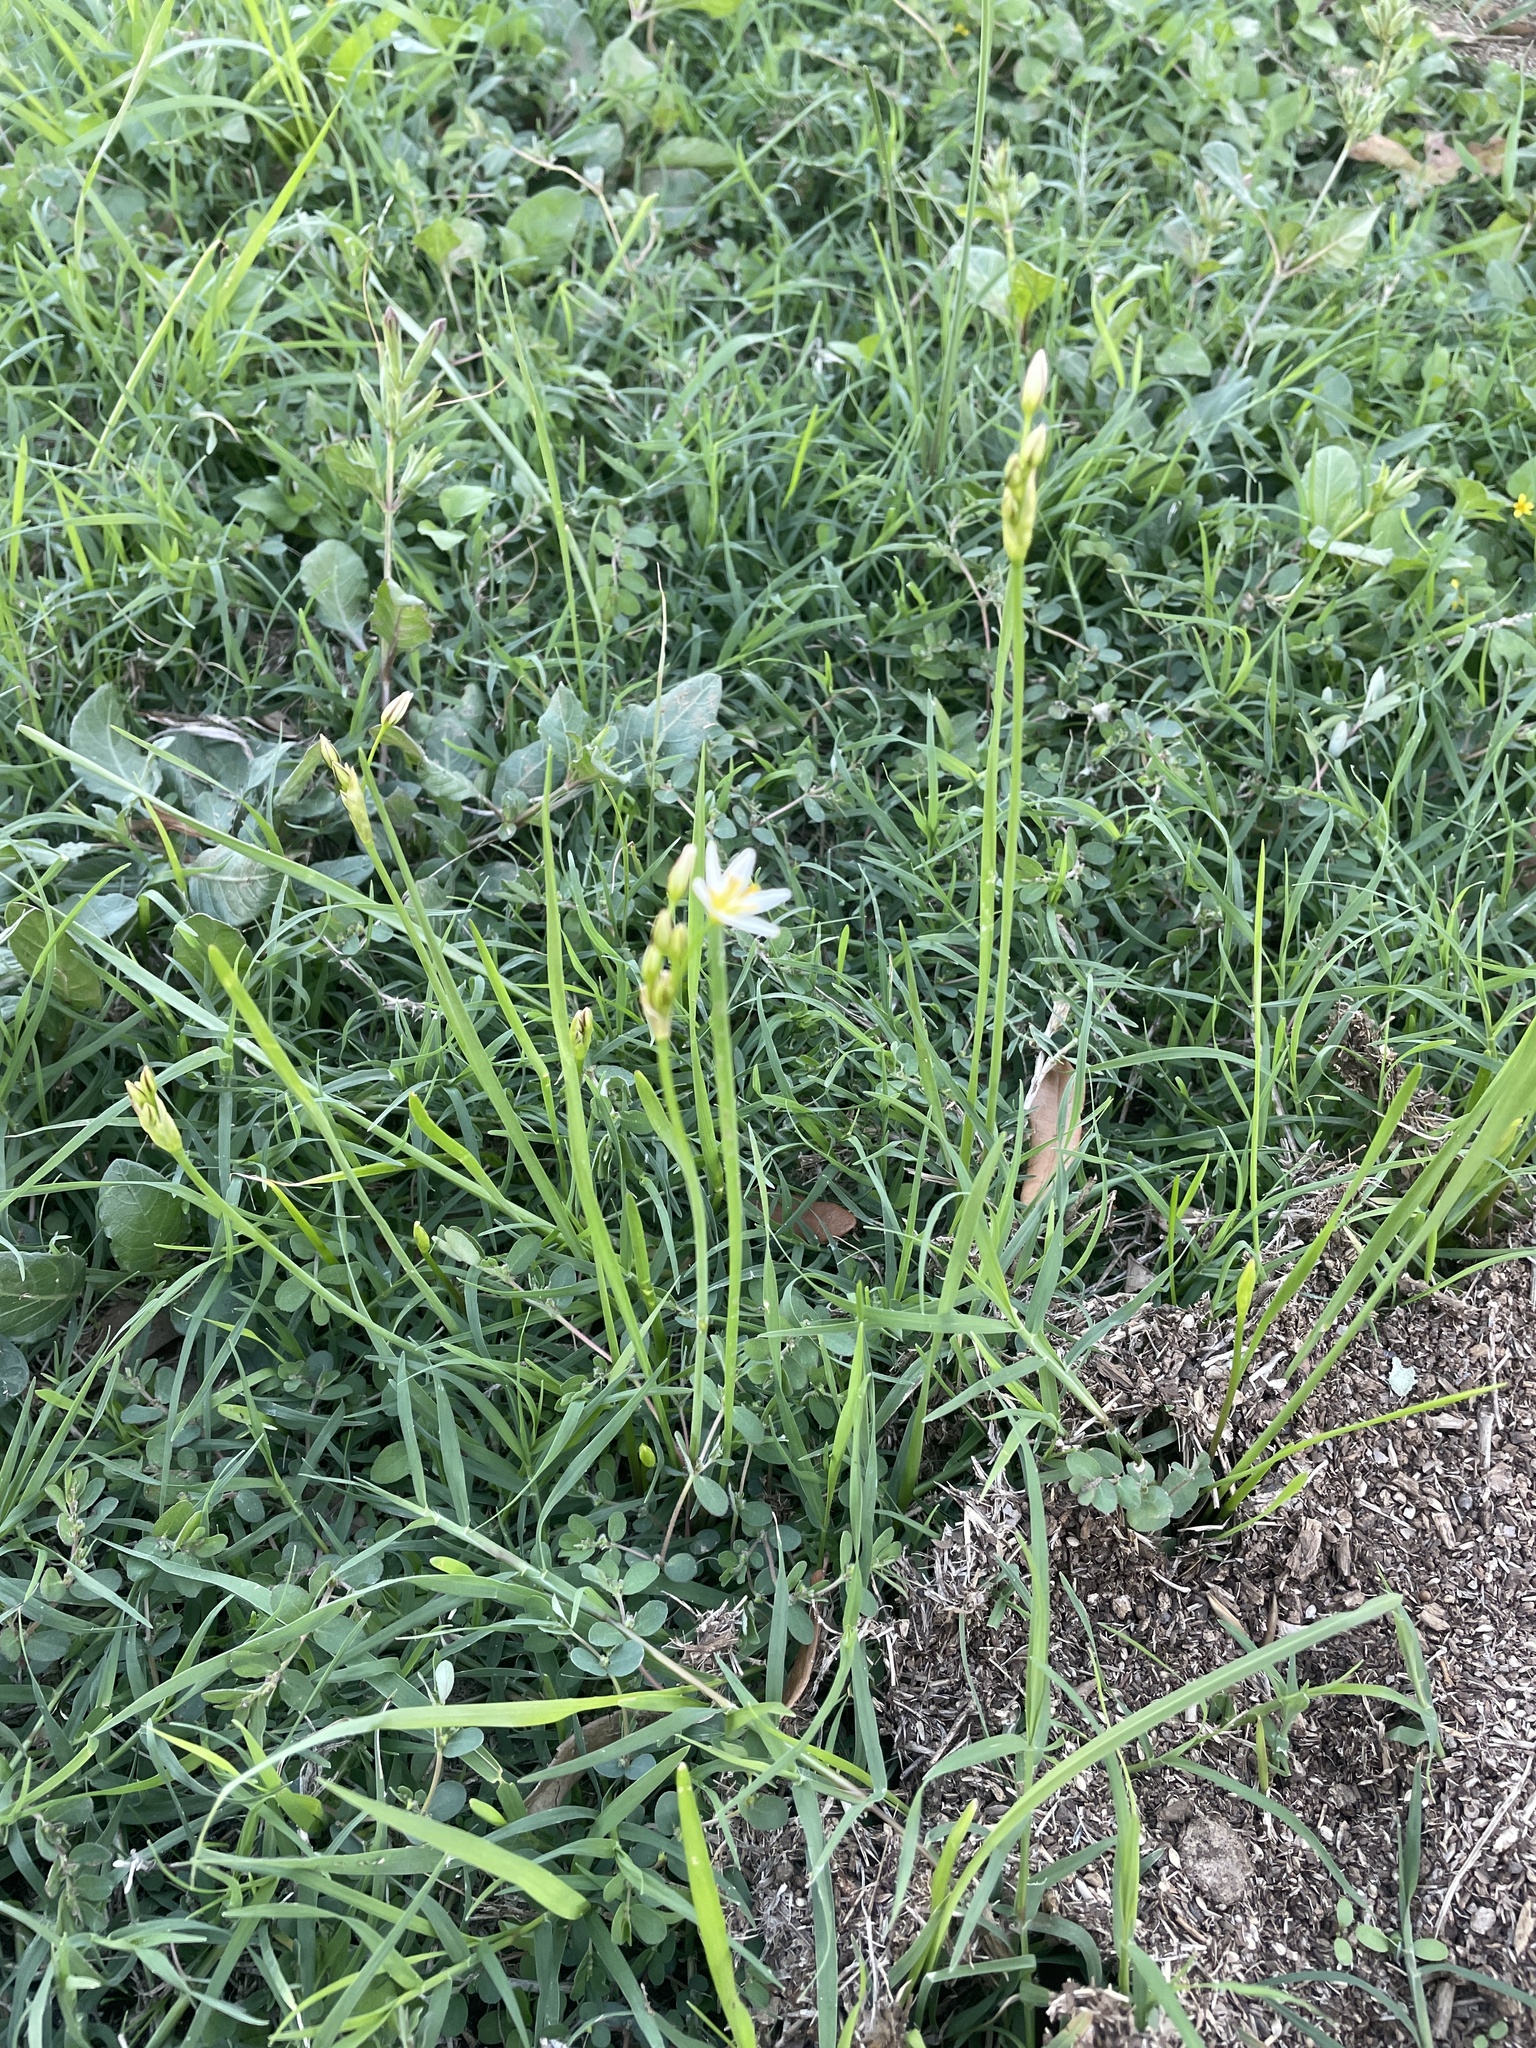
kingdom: Plantae
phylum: Tracheophyta
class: Liliopsida
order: Asparagales
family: Amaryllidaceae
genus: Nothoscordum
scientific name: Nothoscordum bivalve
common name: Crow-poison
